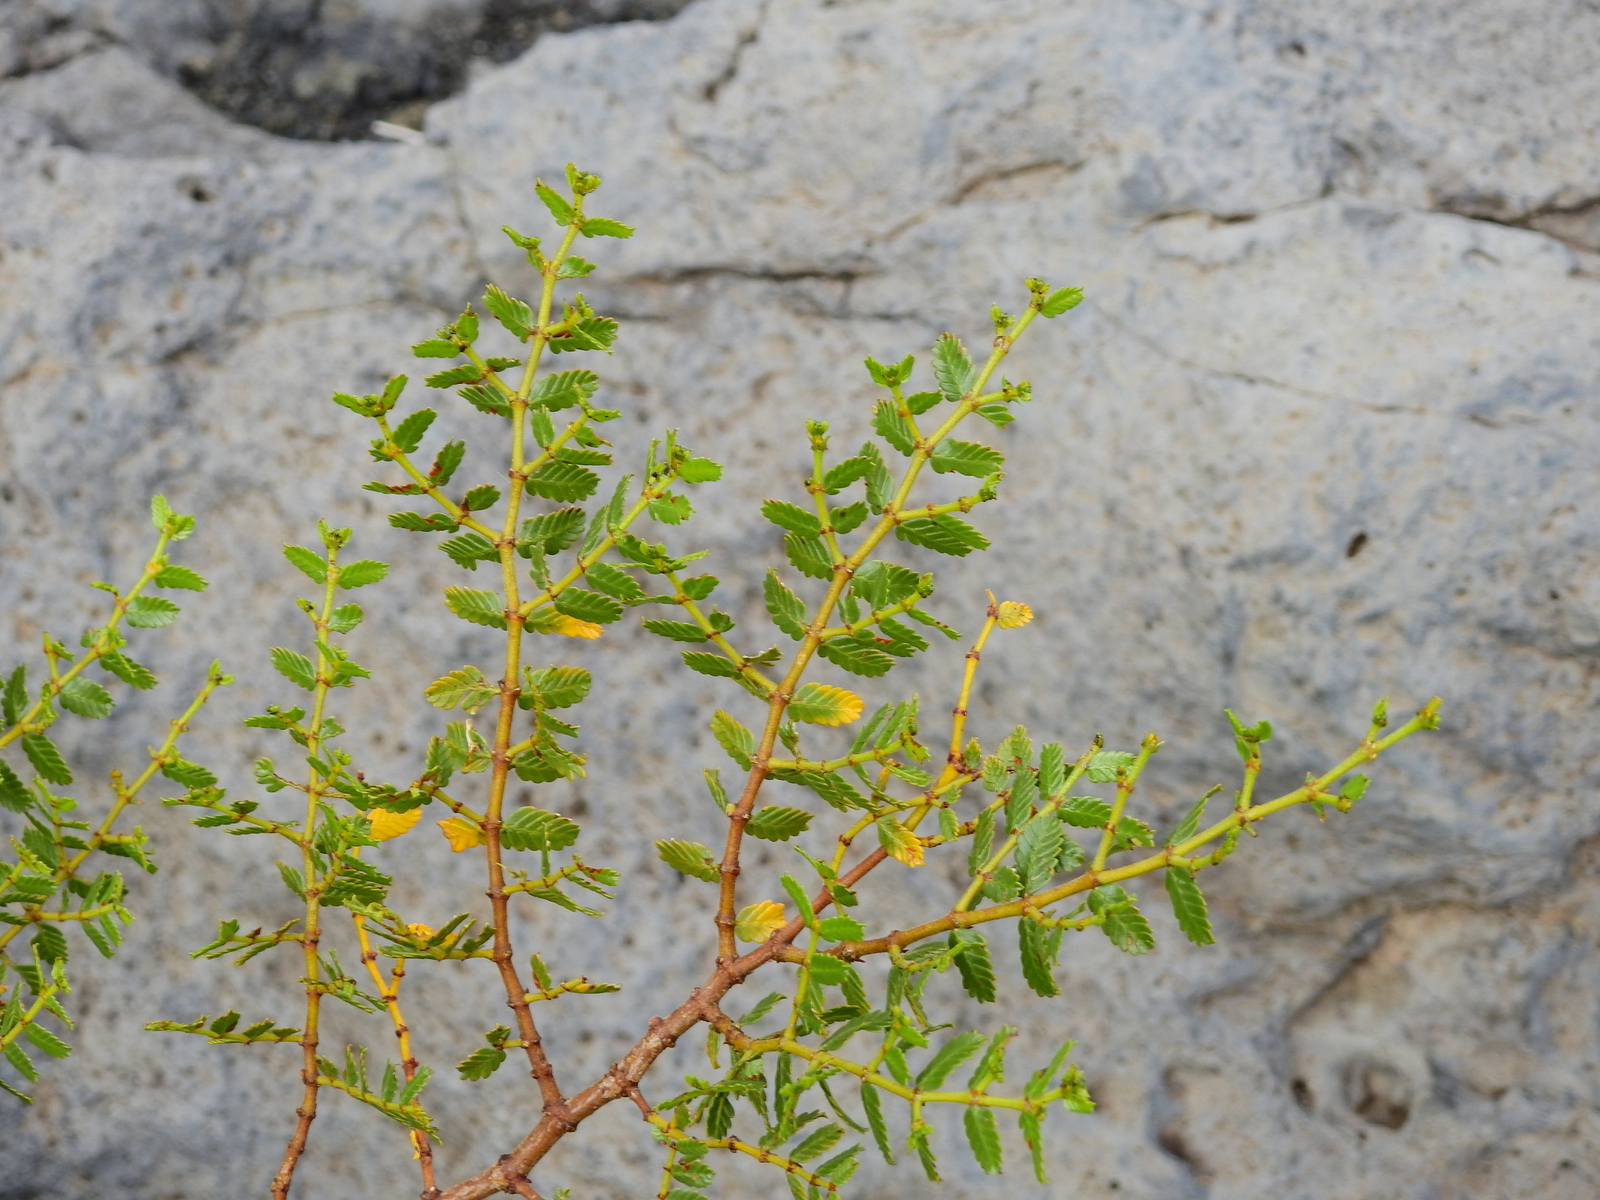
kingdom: Plantae
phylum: Tracheophyta
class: Magnoliopsida
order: Zygophyllales
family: Zygophyllaceae
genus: Larrea
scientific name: Larrea nitida
